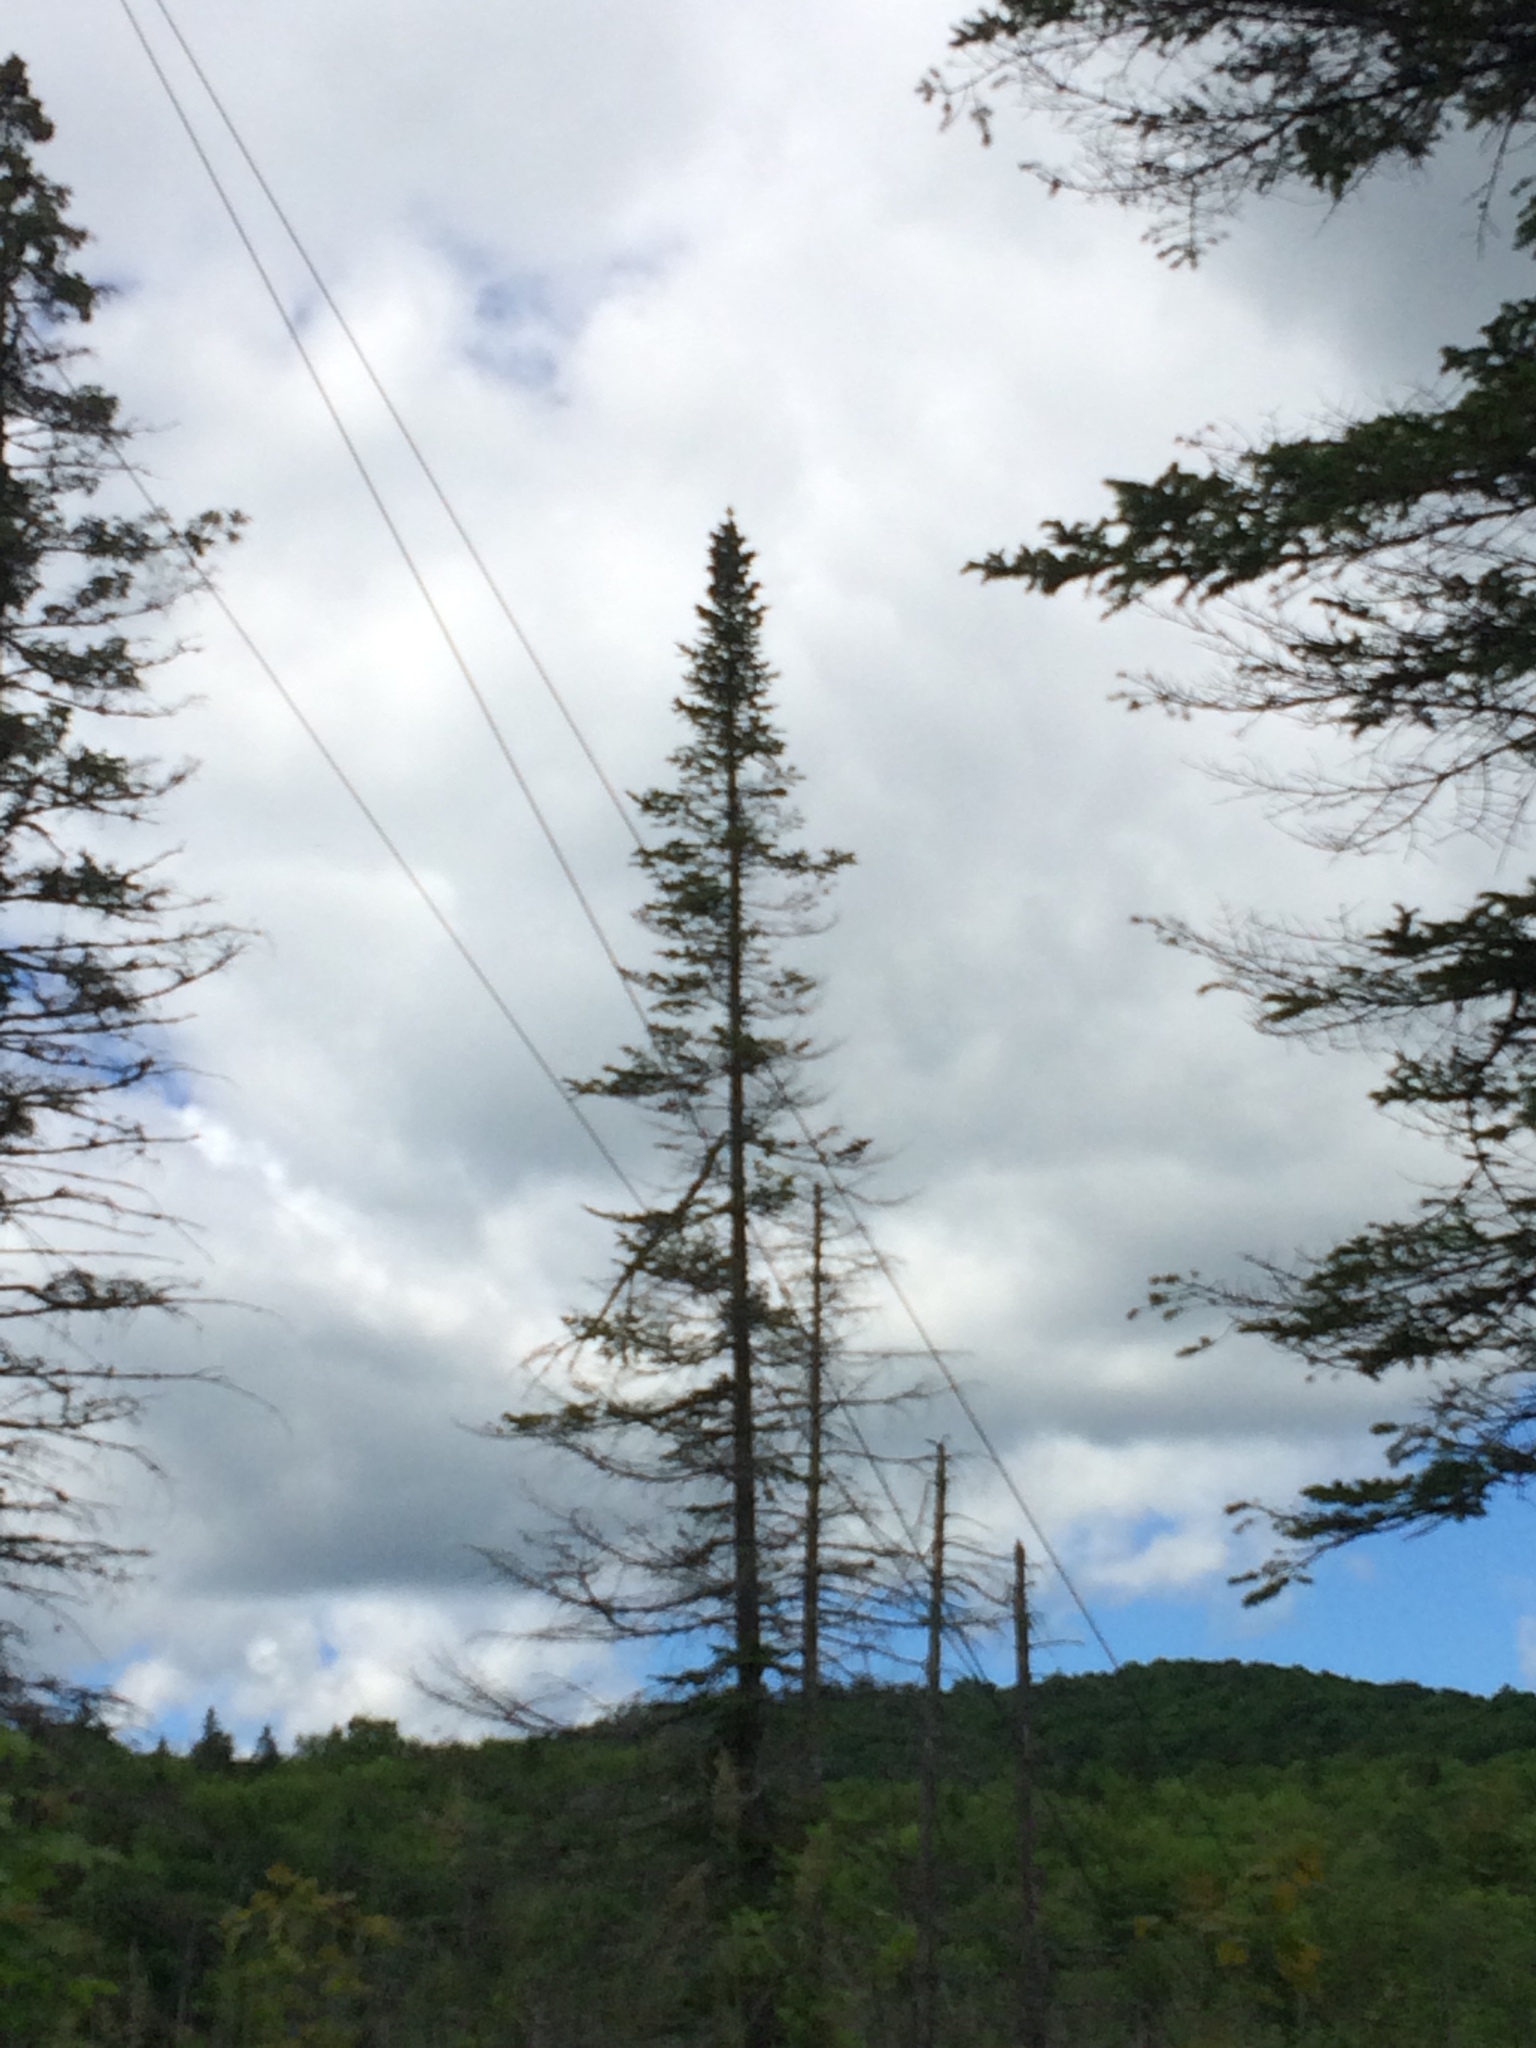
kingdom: Plantae
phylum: Tracheophyta
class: Pinopsida
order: Pinales
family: Pinaceae
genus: Abies
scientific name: Abies balsamea
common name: Balsam fir
